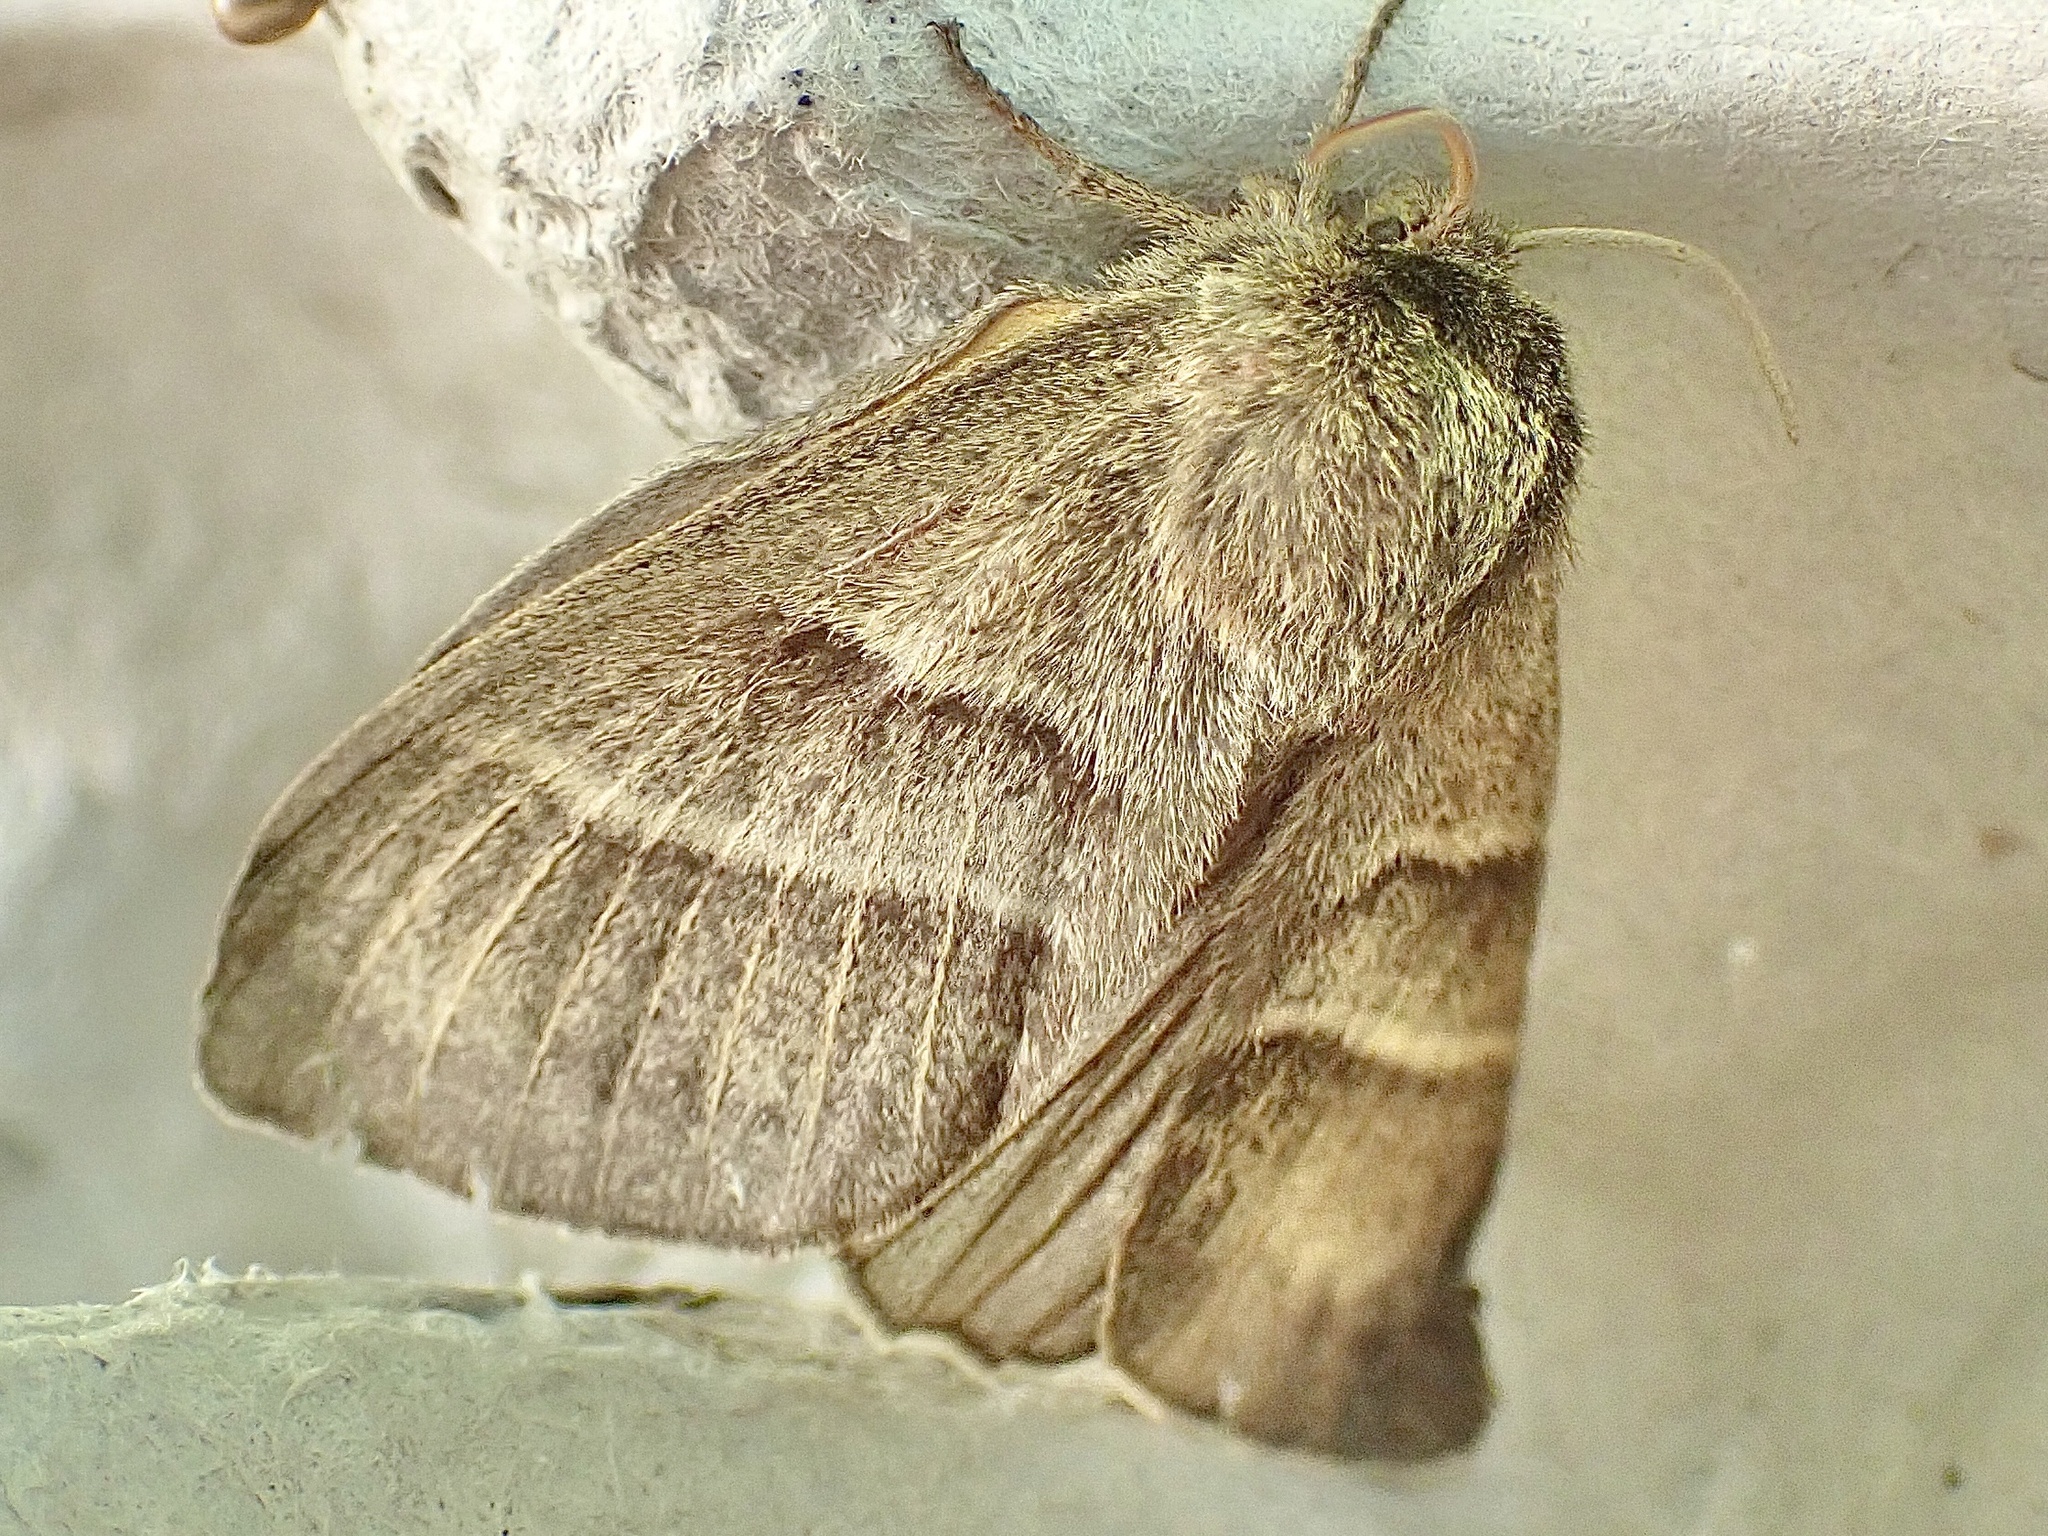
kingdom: Animalia
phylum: Arthropoda
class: Insecta
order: Lepidoptera
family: Lasiocampidae
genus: Macrothylacia
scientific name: Macrothylacia rubi
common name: Fox moth
